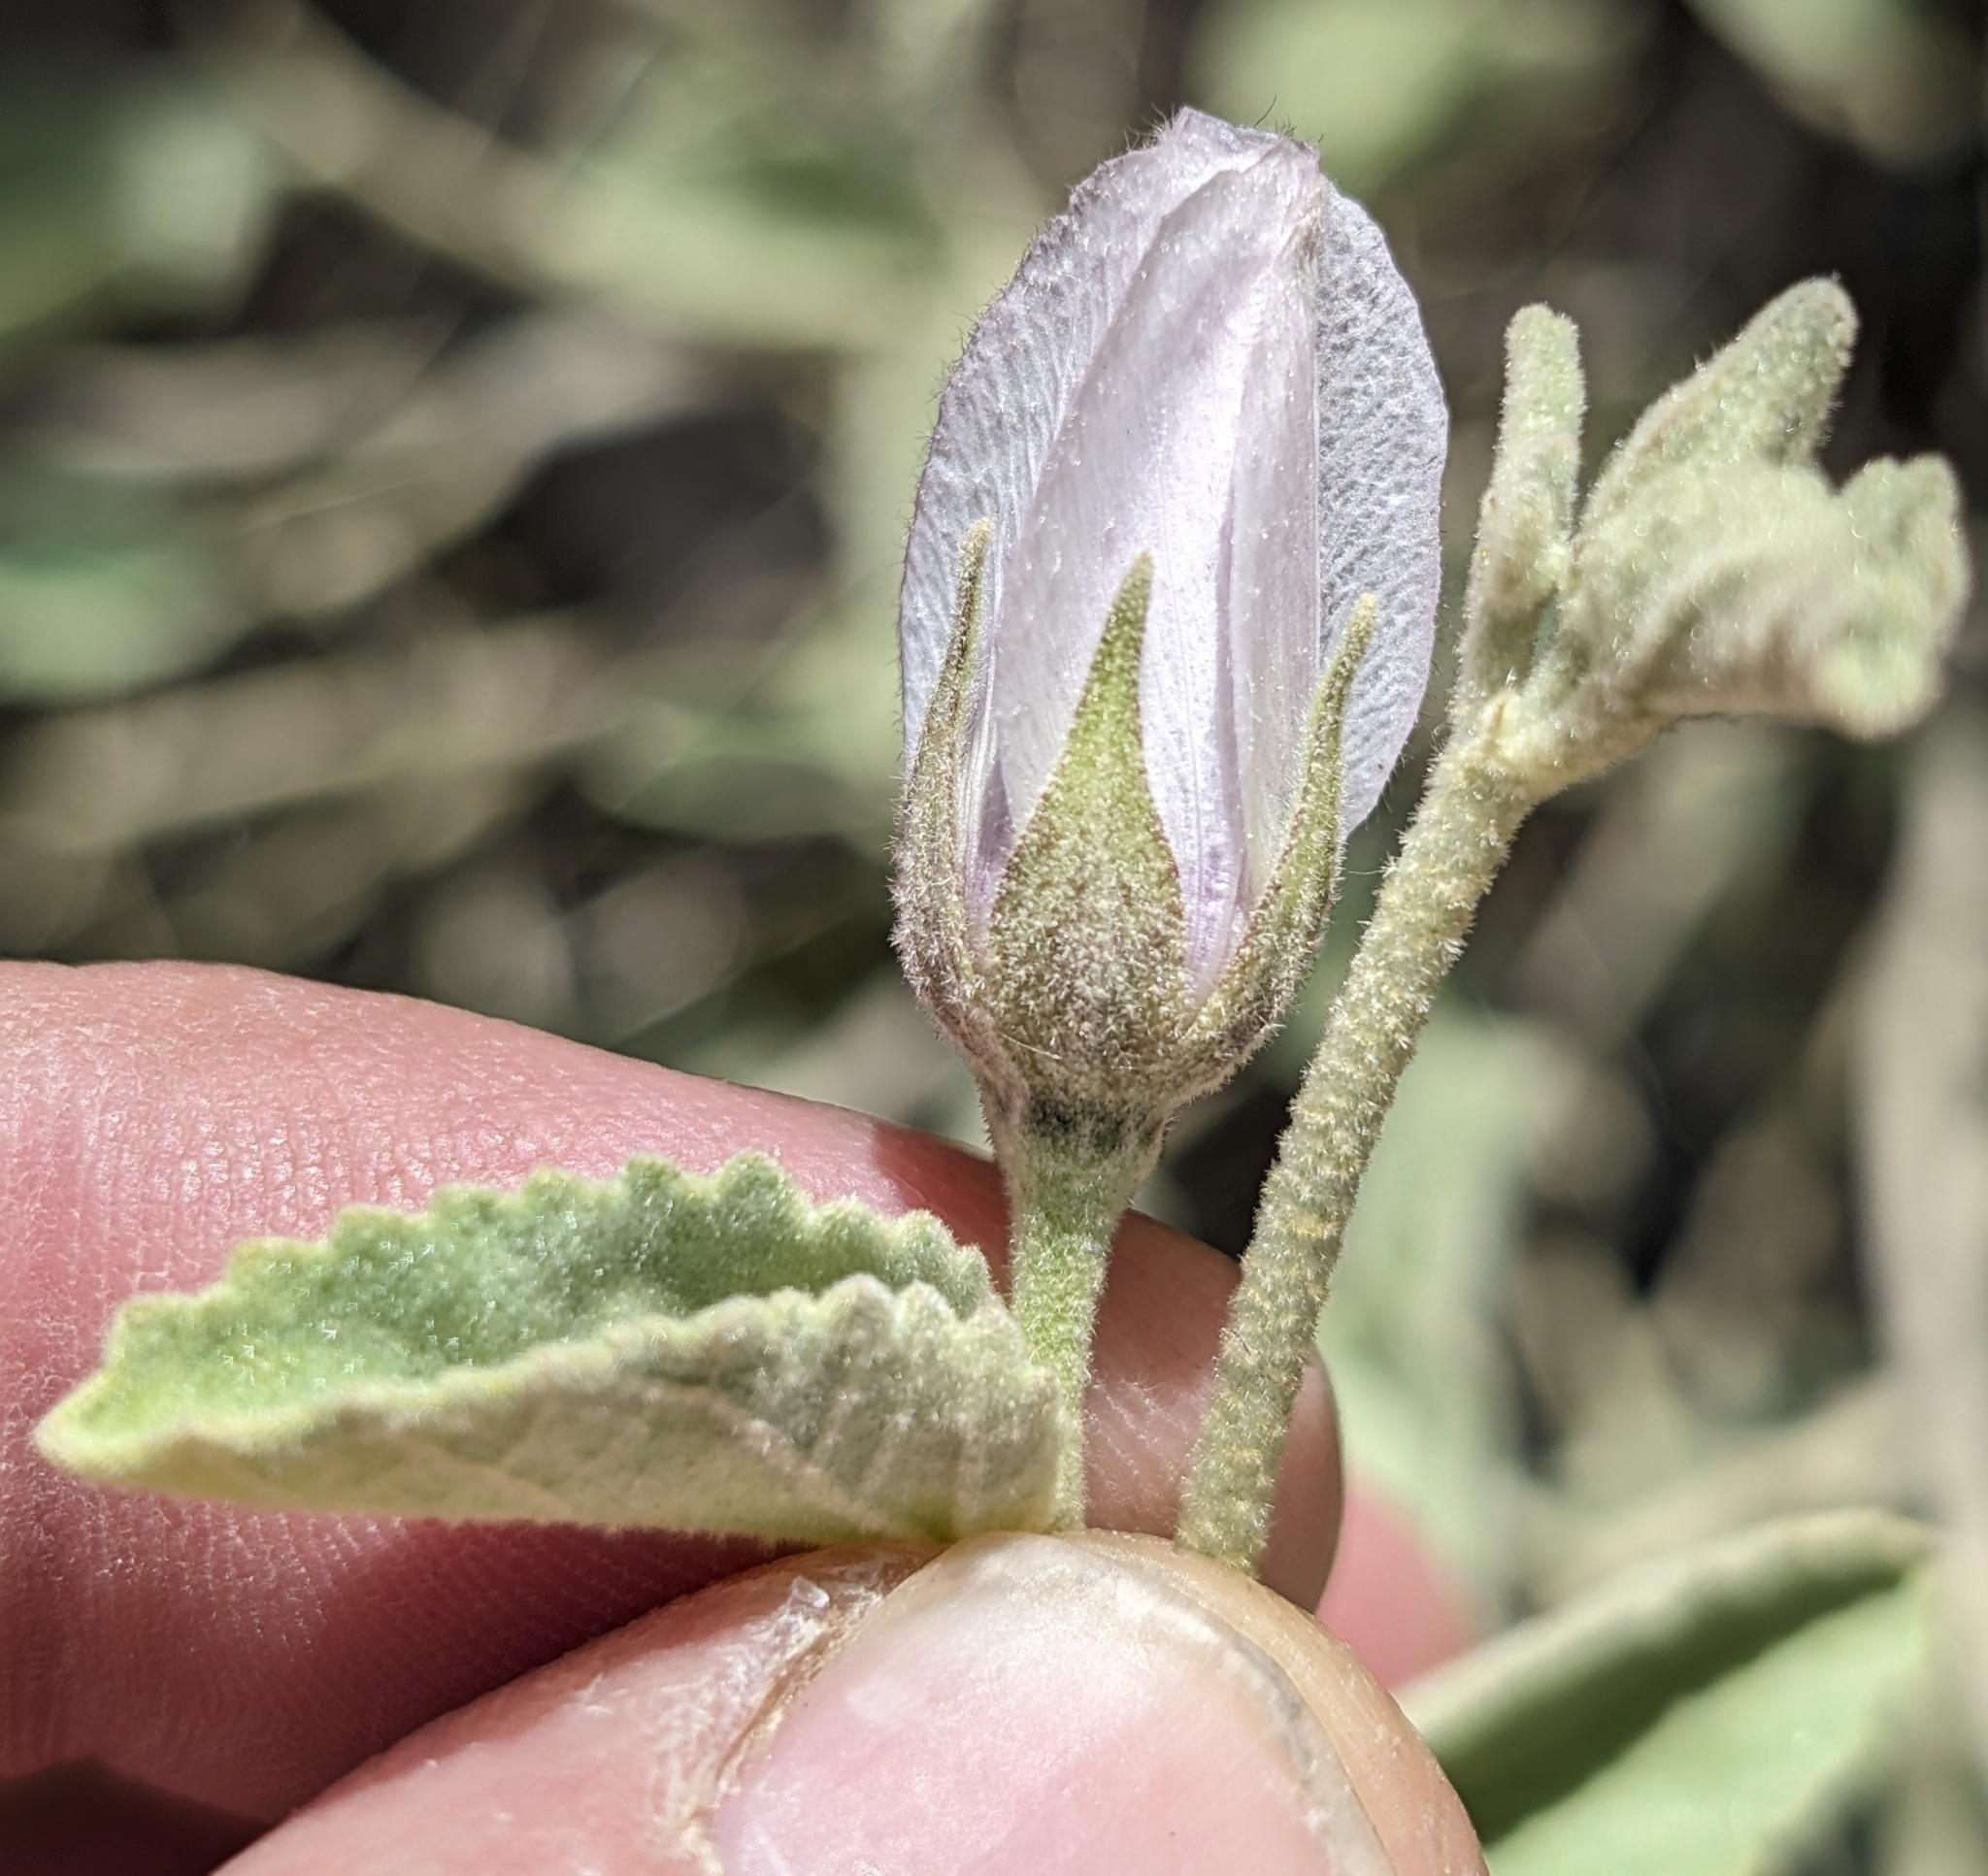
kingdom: Plantae
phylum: Tracheophyta
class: Magnoliopsida
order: Malvales
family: Malvaceae
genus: Hibiscus
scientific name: Hibiscus denudatus
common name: Paleface
